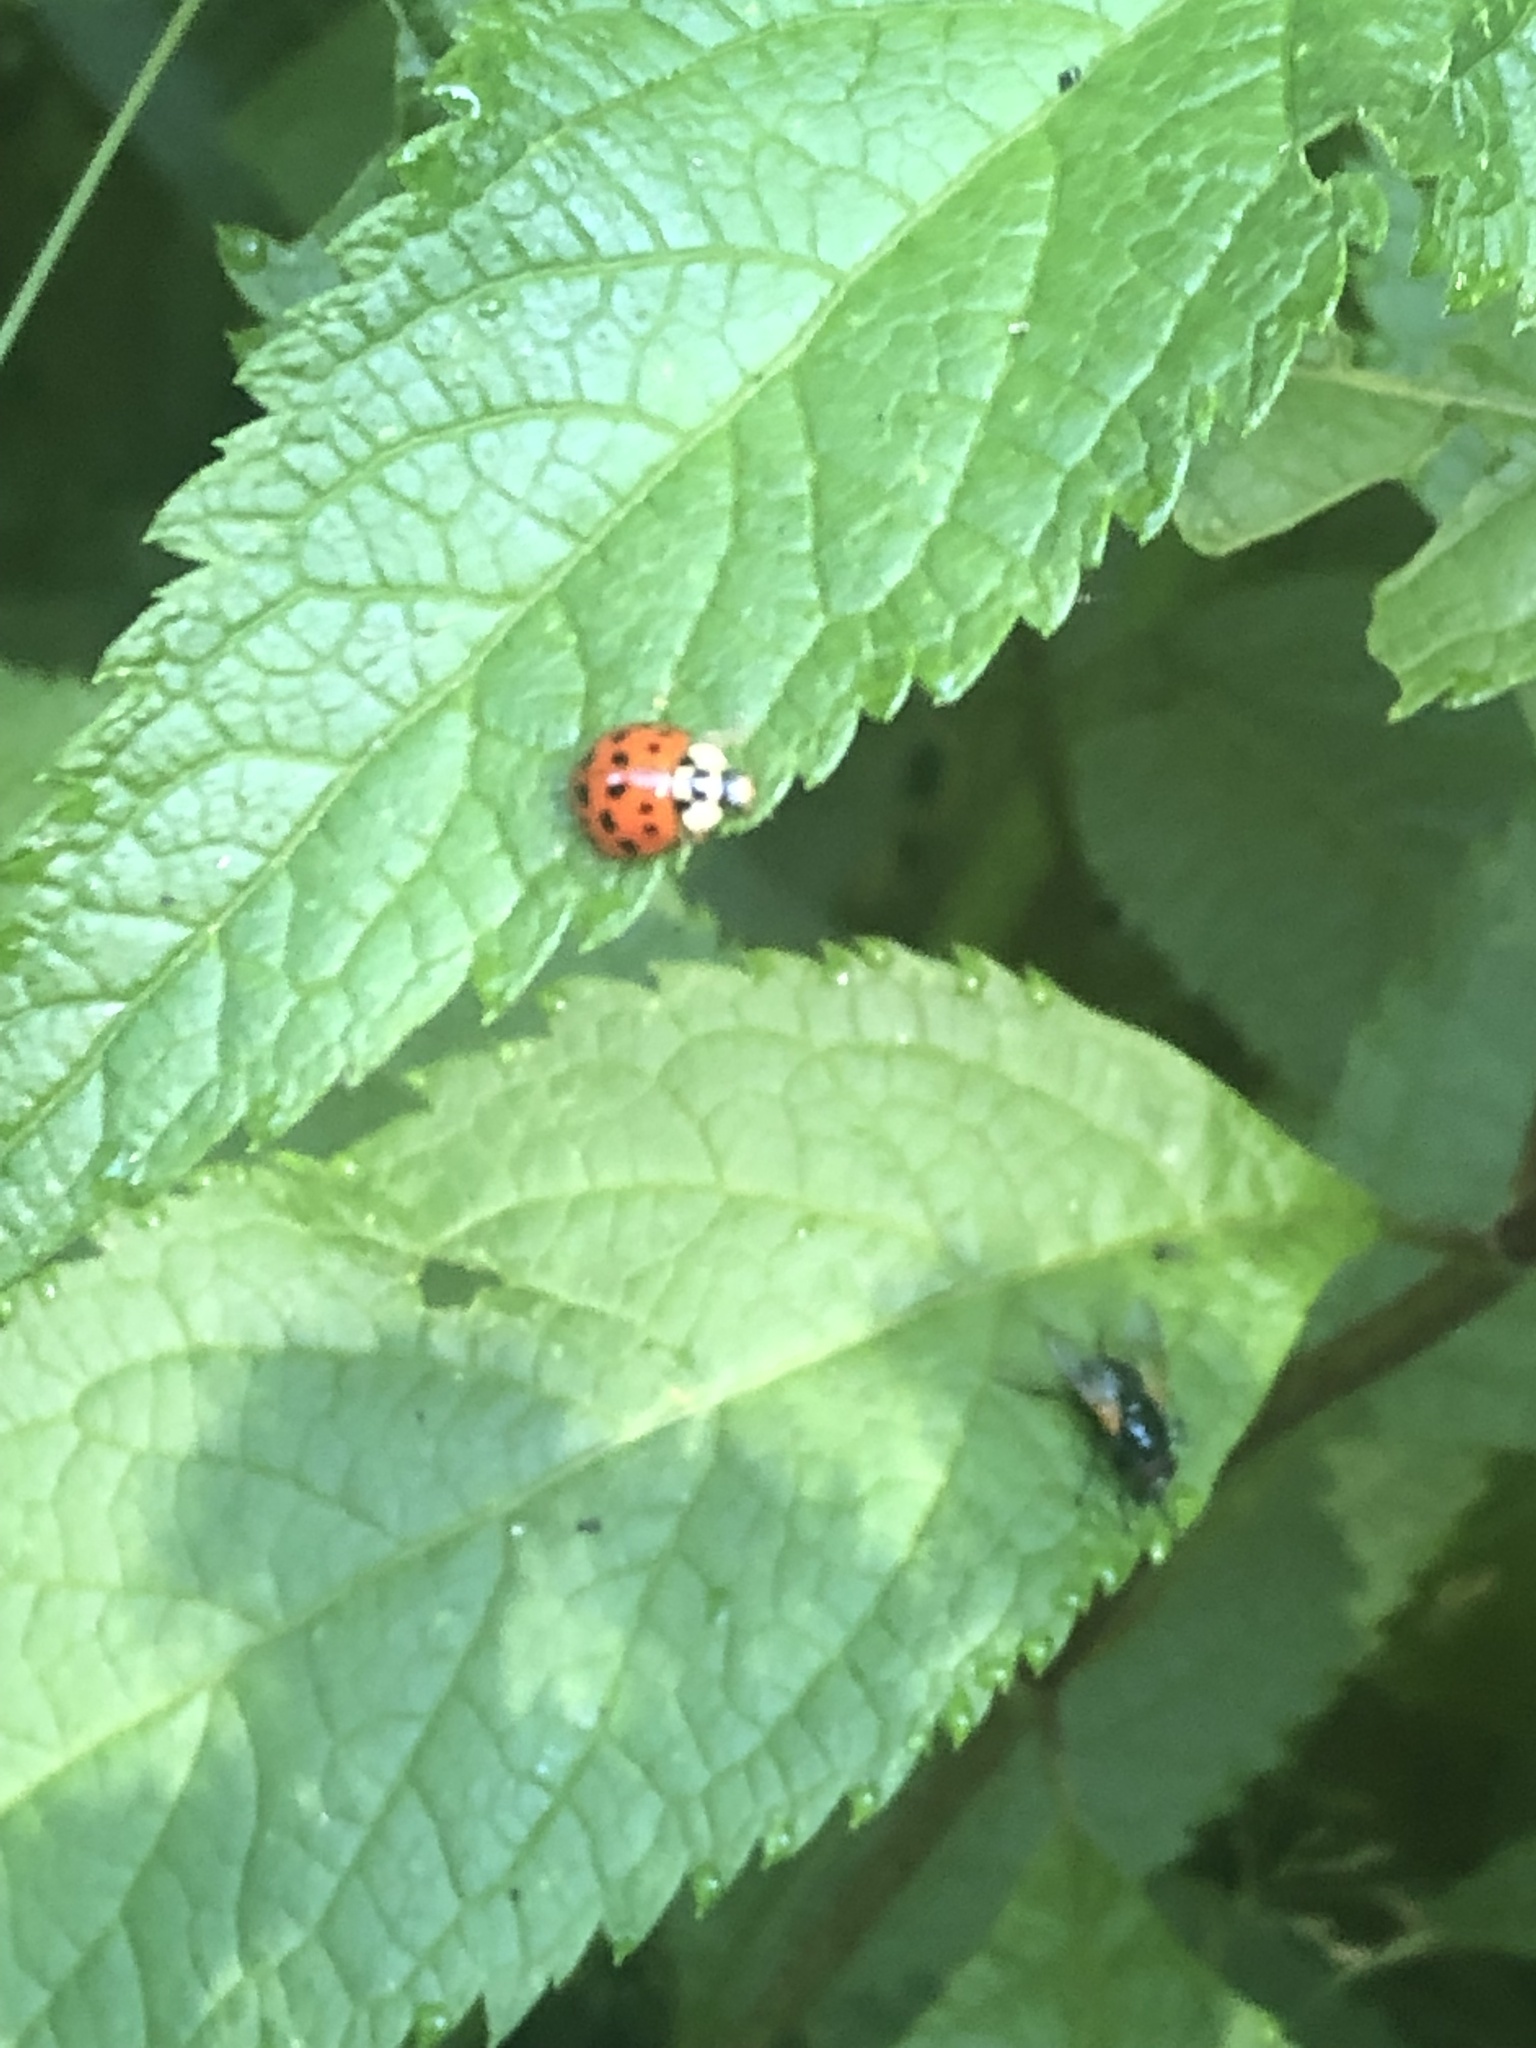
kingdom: Animalia
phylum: Arthropoda
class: Insecta
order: Coleoptera
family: Coccinellidae
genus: Harmonia
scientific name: Harmonia axyridis
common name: Harlequin ladybird
